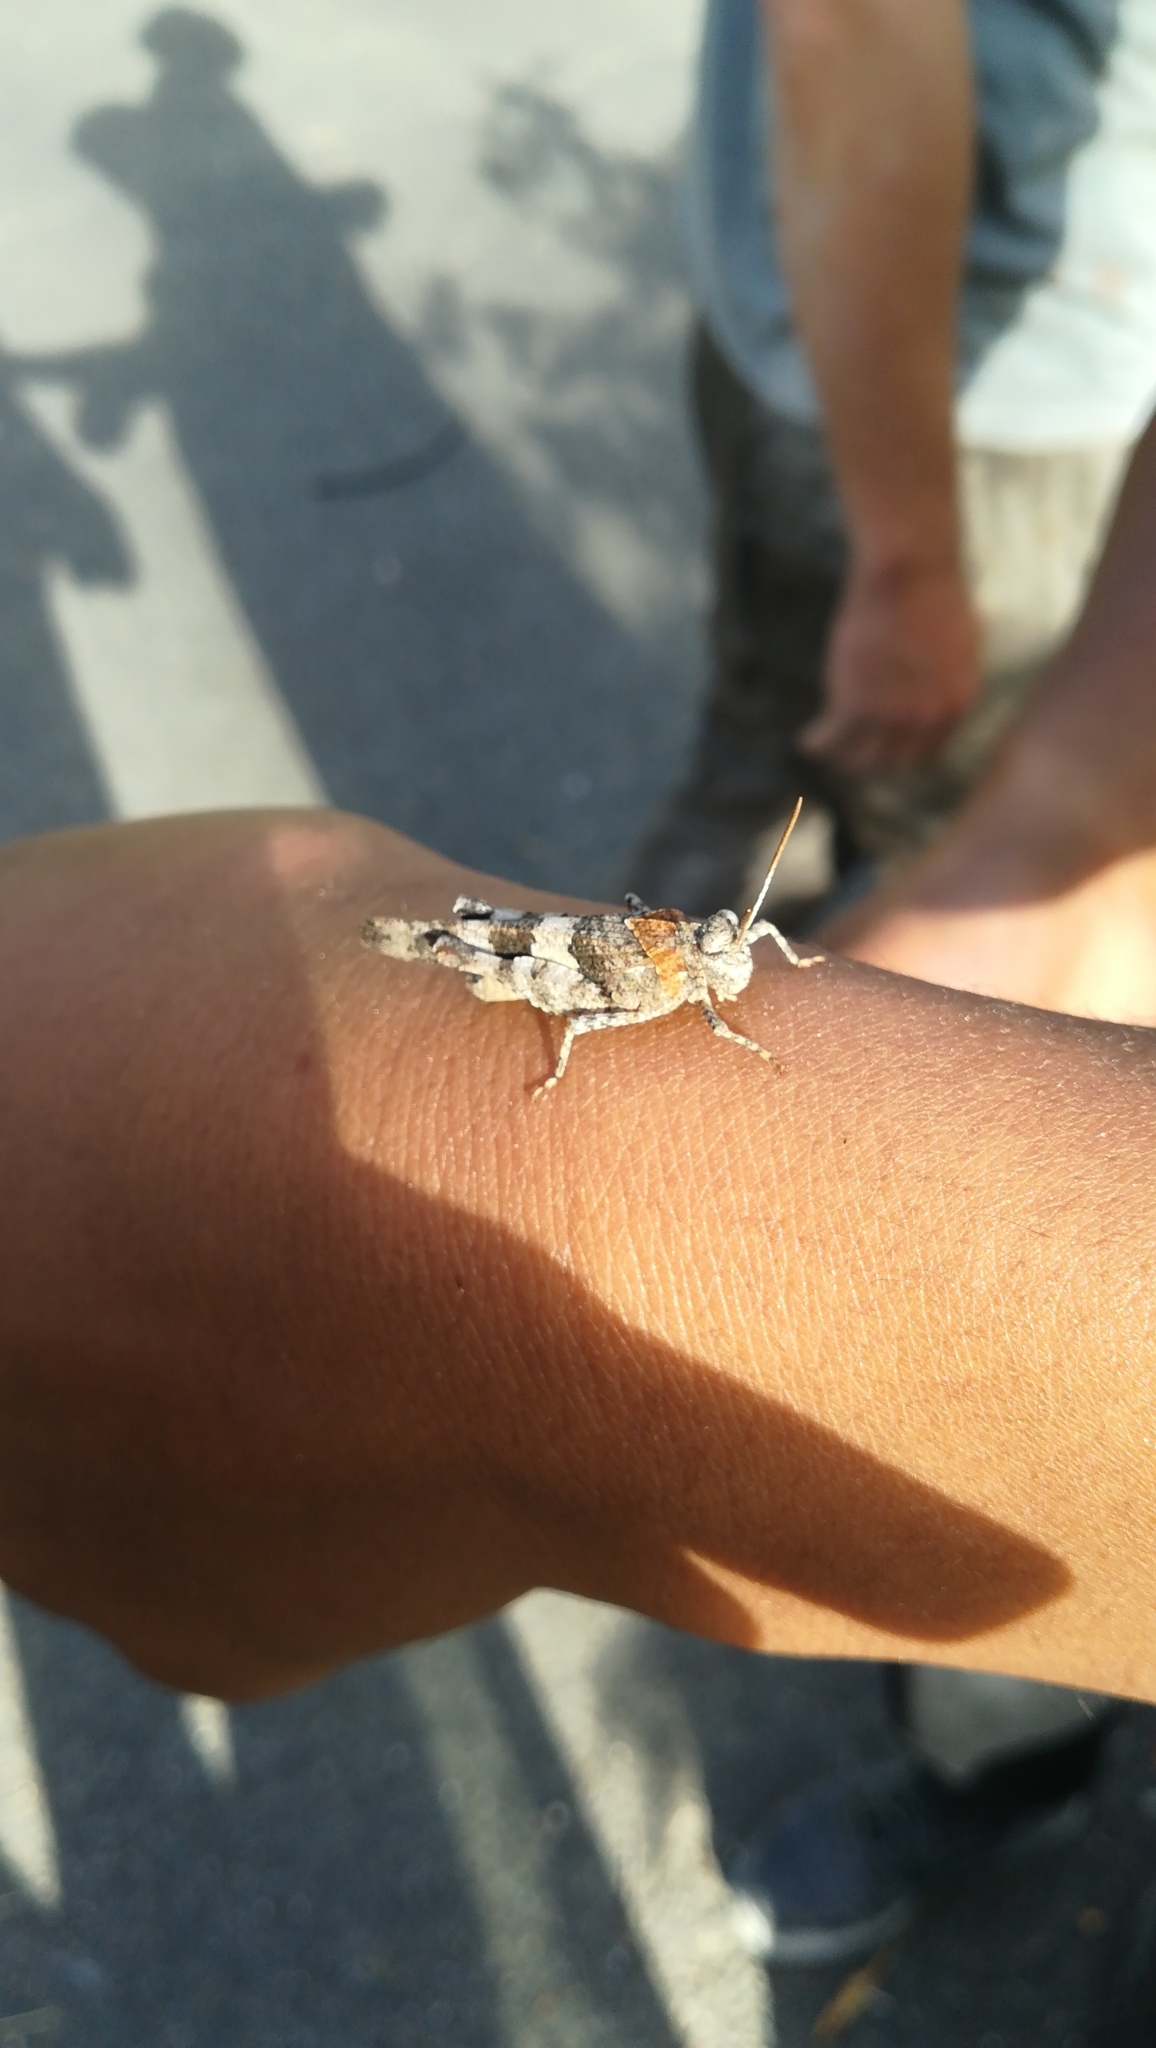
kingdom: Animalia
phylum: Arthropoda
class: Insecta
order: Orthoptera
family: Acrididae
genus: Oedipoda
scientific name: Oedipoda caerulescens
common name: Blue-winged grasshopper
